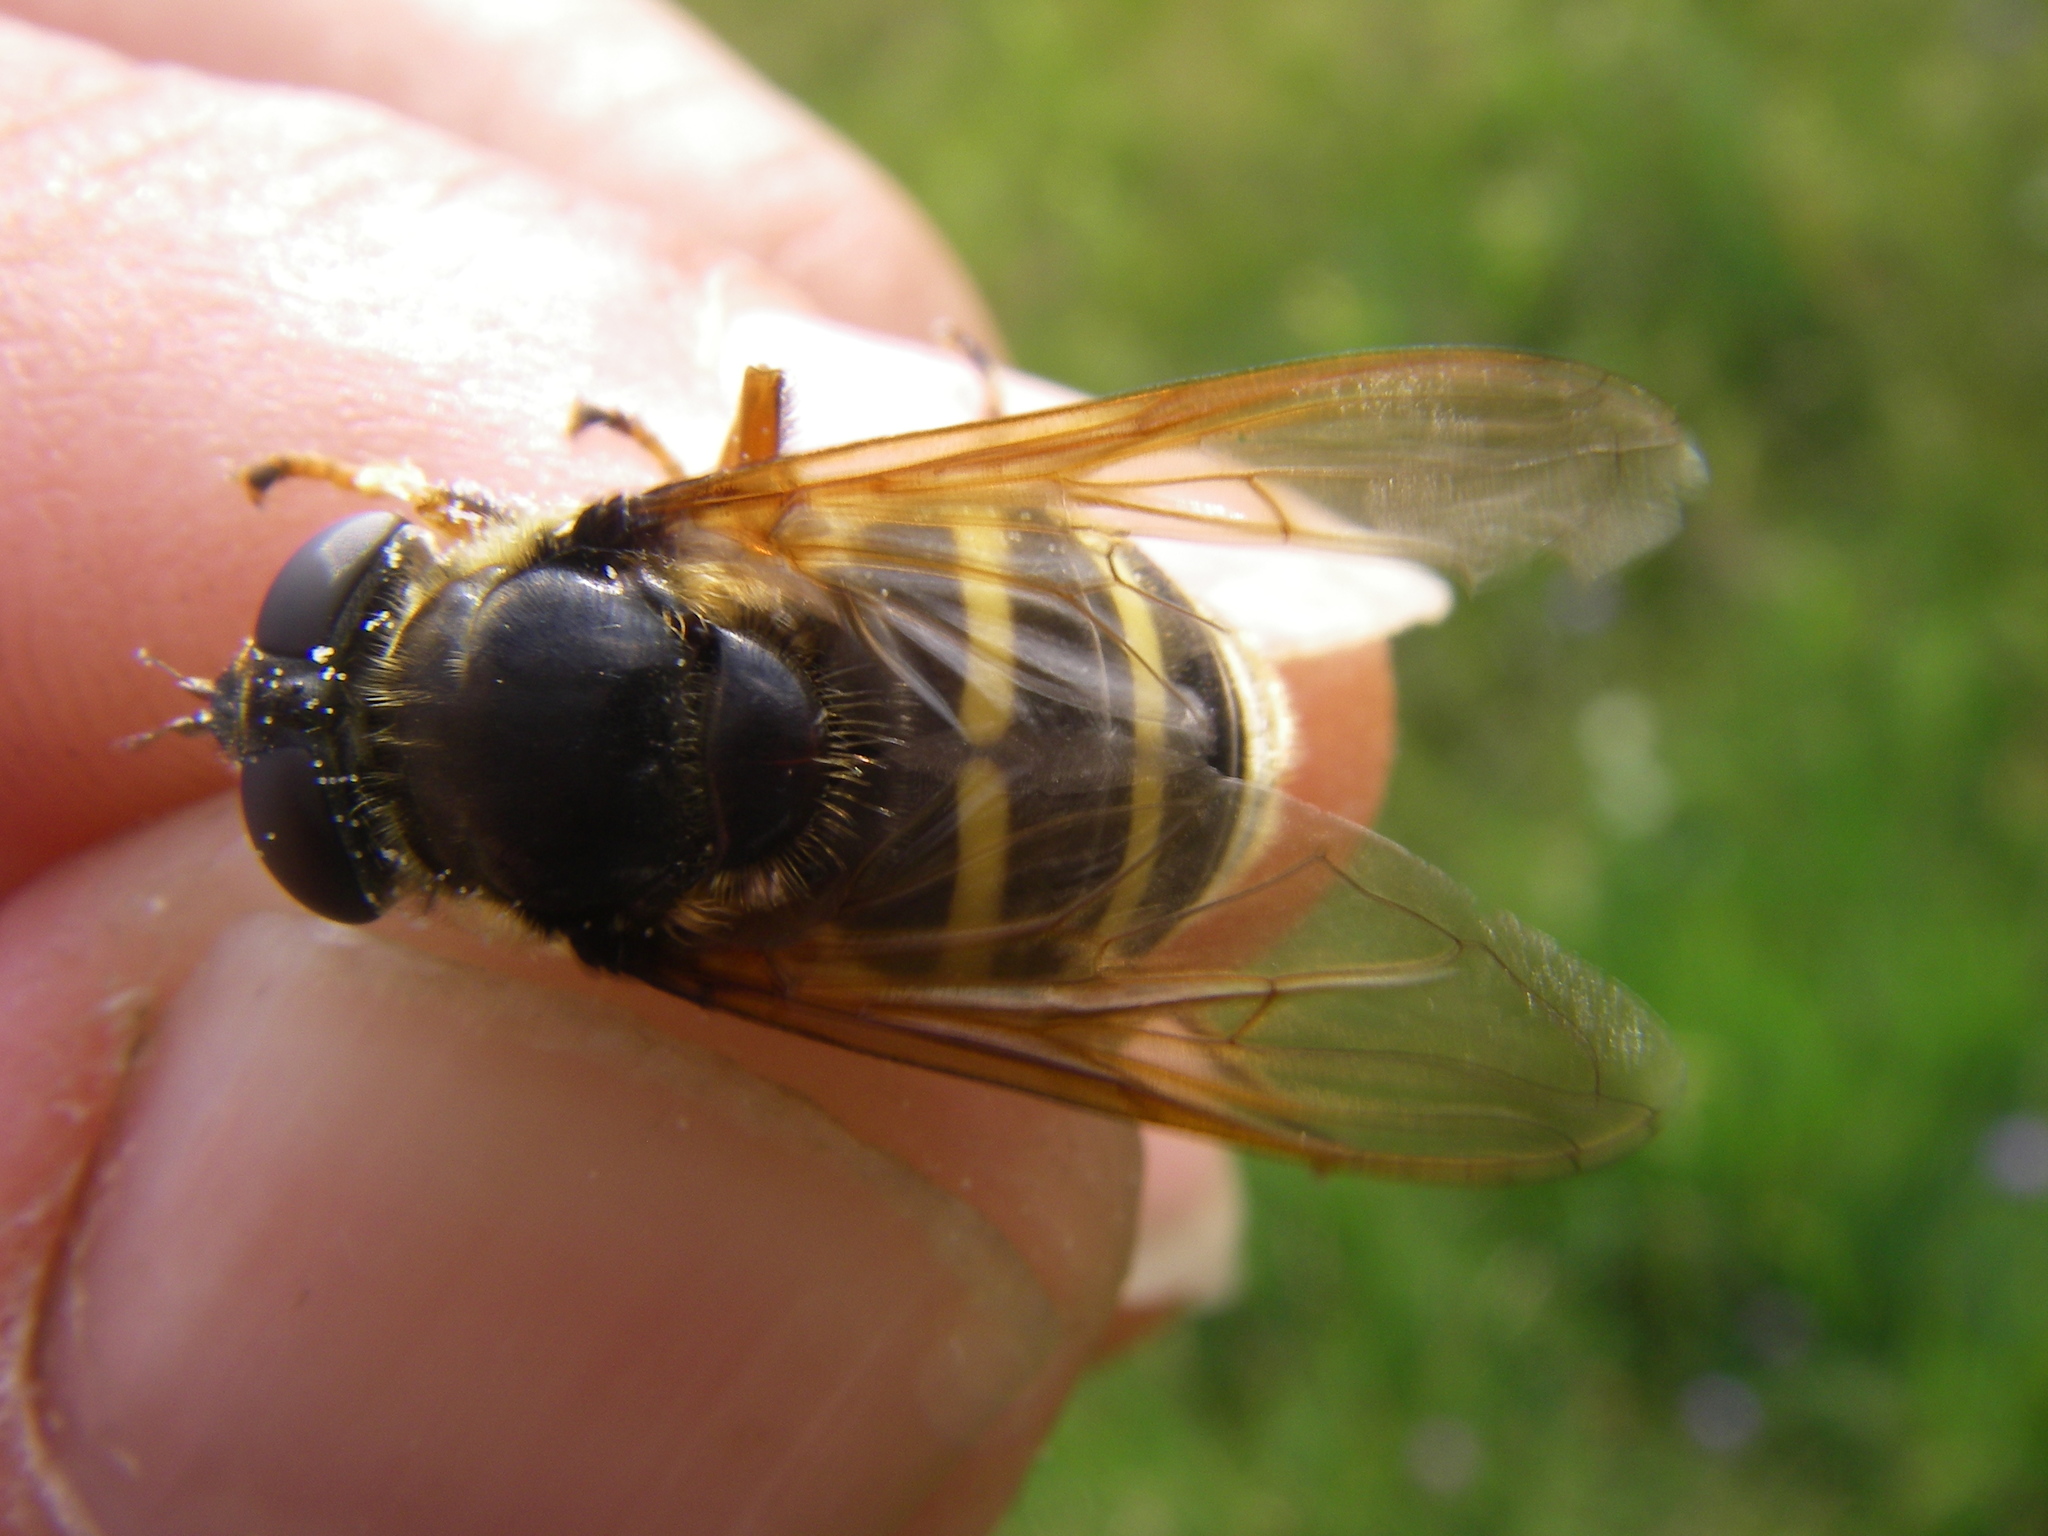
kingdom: Animalia
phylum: Arthropoda
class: Insecta
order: Diptera
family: Syrphidae
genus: Sericomyia
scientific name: Sericomyia silentis
